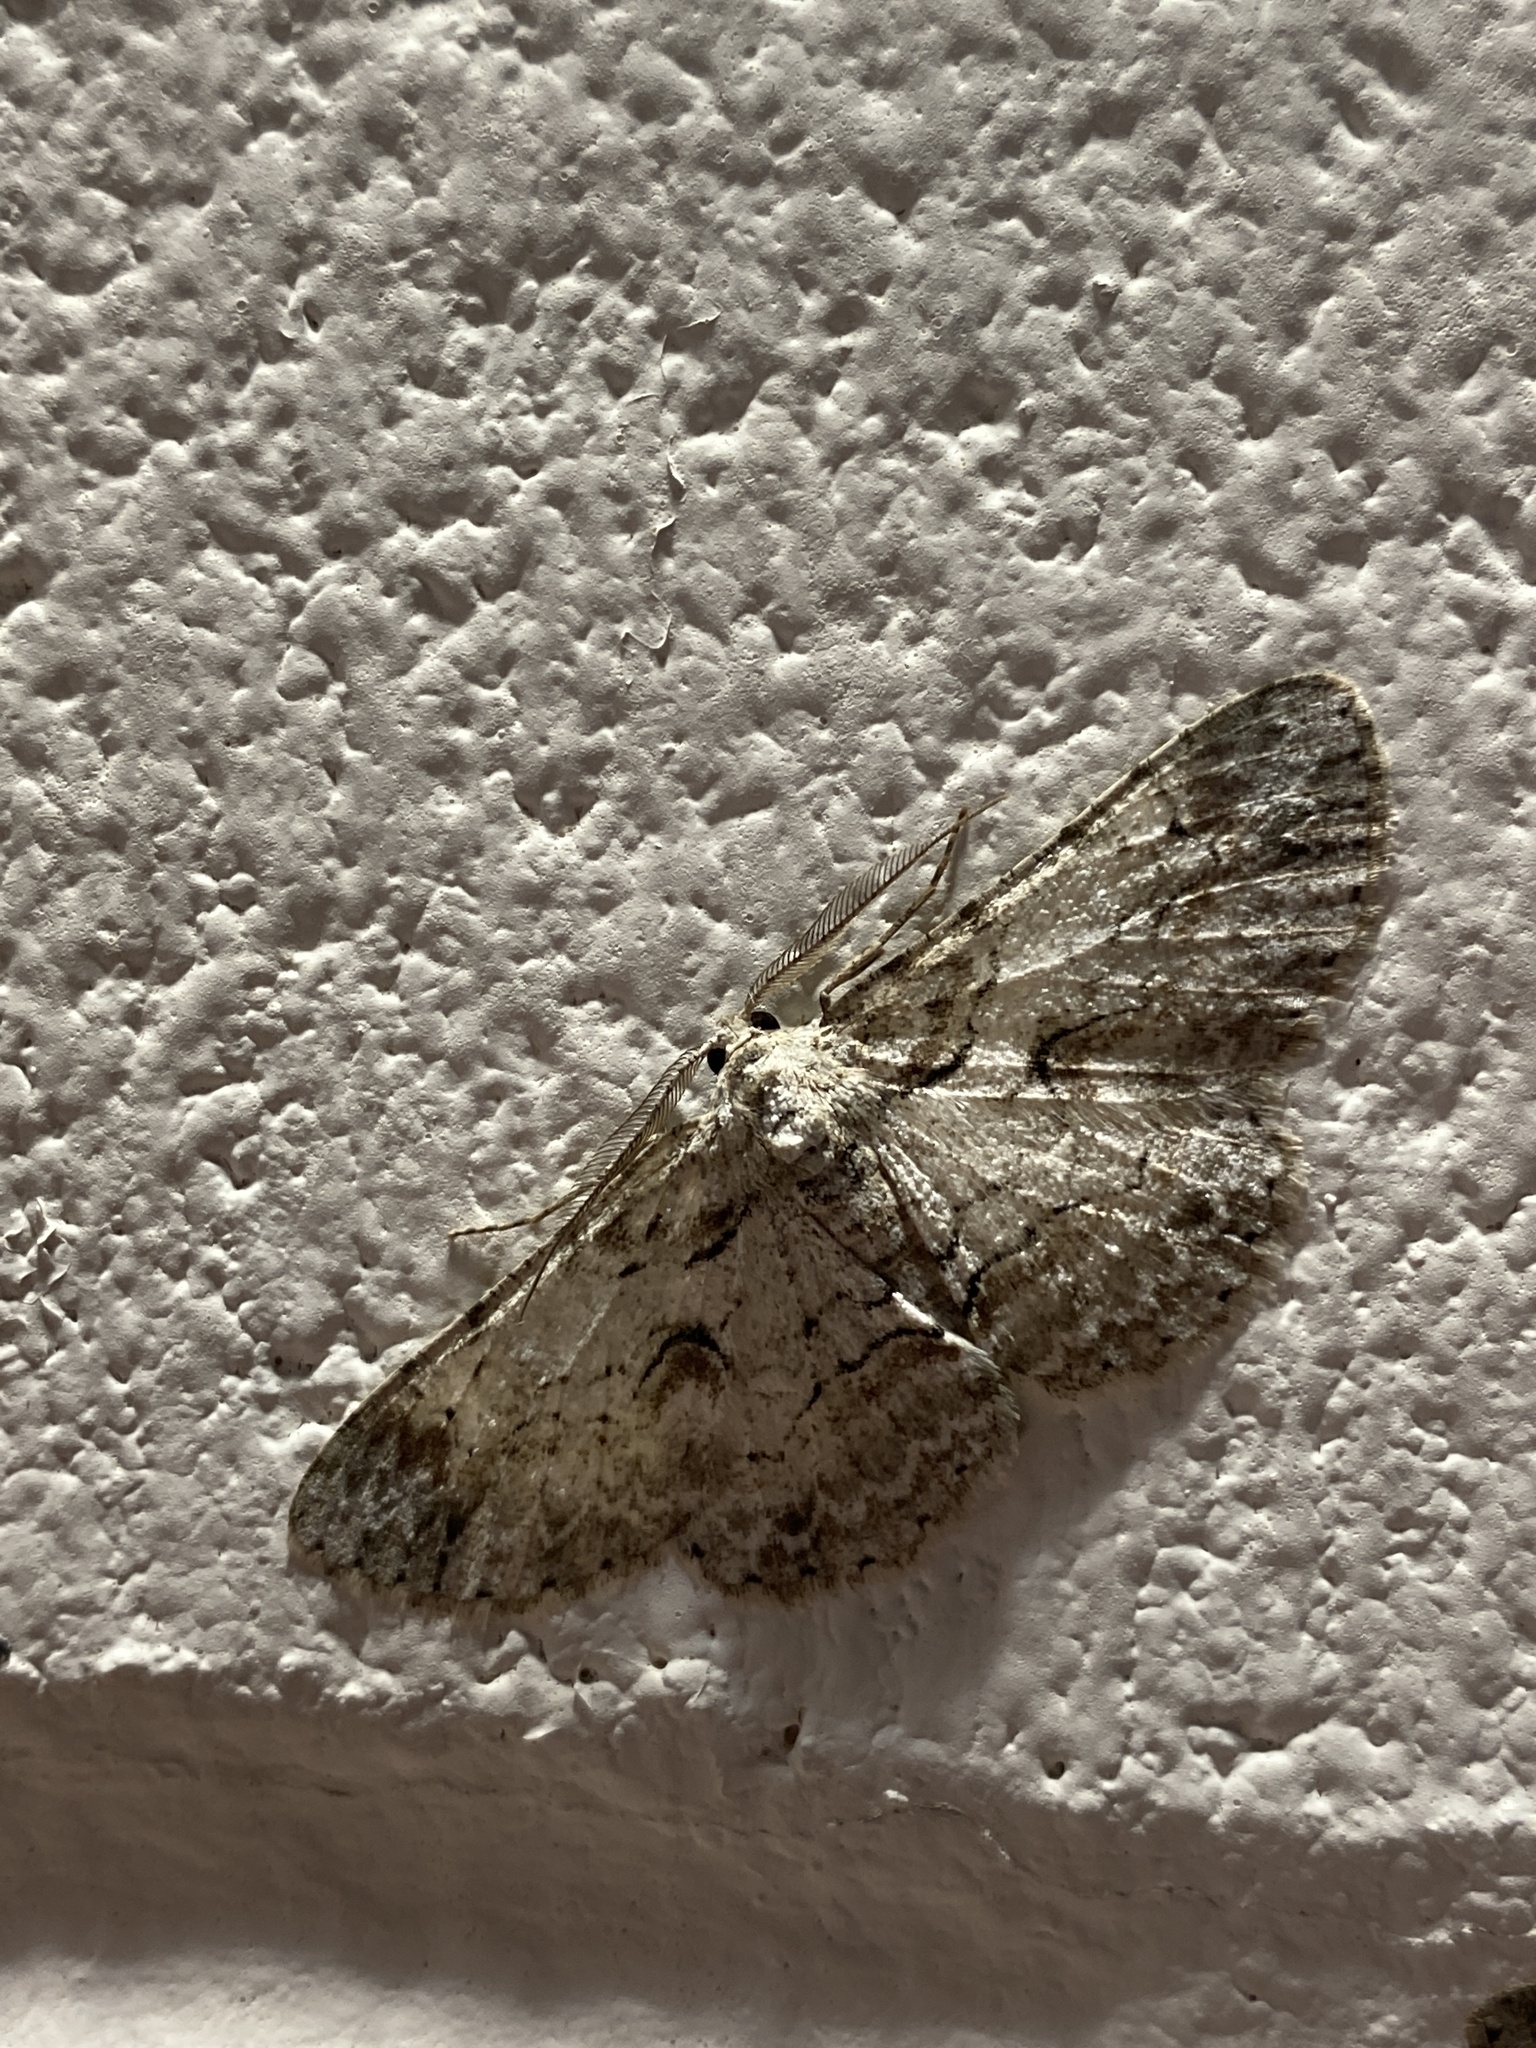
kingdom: Animalia
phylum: Arthropoda
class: Insecta
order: Lepidoptera
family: Geometridae
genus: Iridopsis
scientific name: Iridopsis defectaria
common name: Brown-shaded gray
